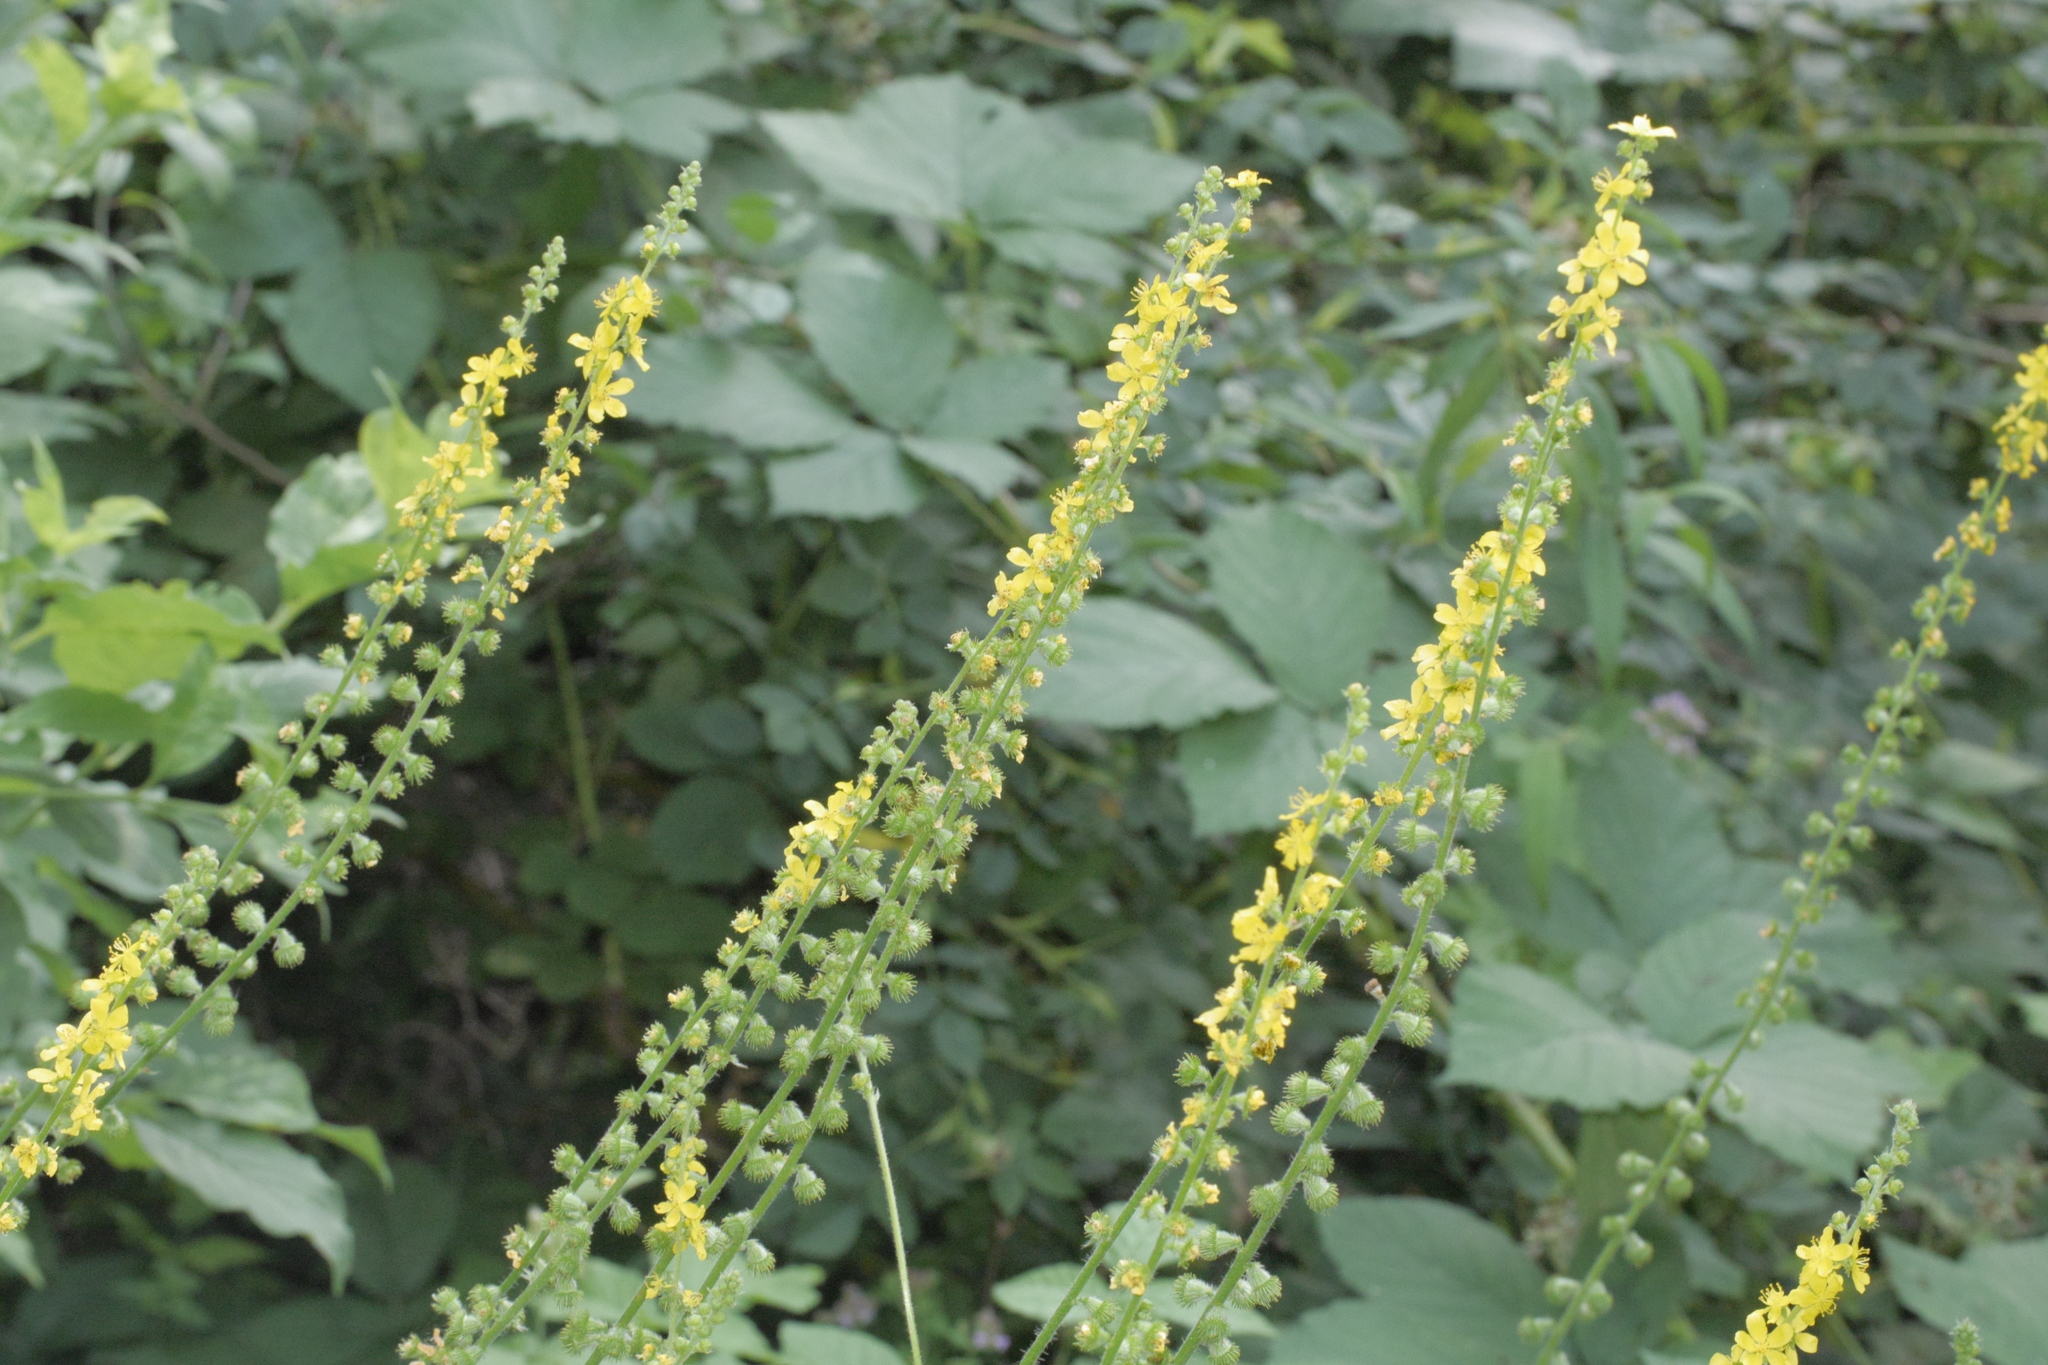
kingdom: Plantae
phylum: Tracheophyta
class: Magnoliopsida
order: Rosales
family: Rosaceae
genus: Agrimonia
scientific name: Agrimonia eupatoria
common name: Agrimony
